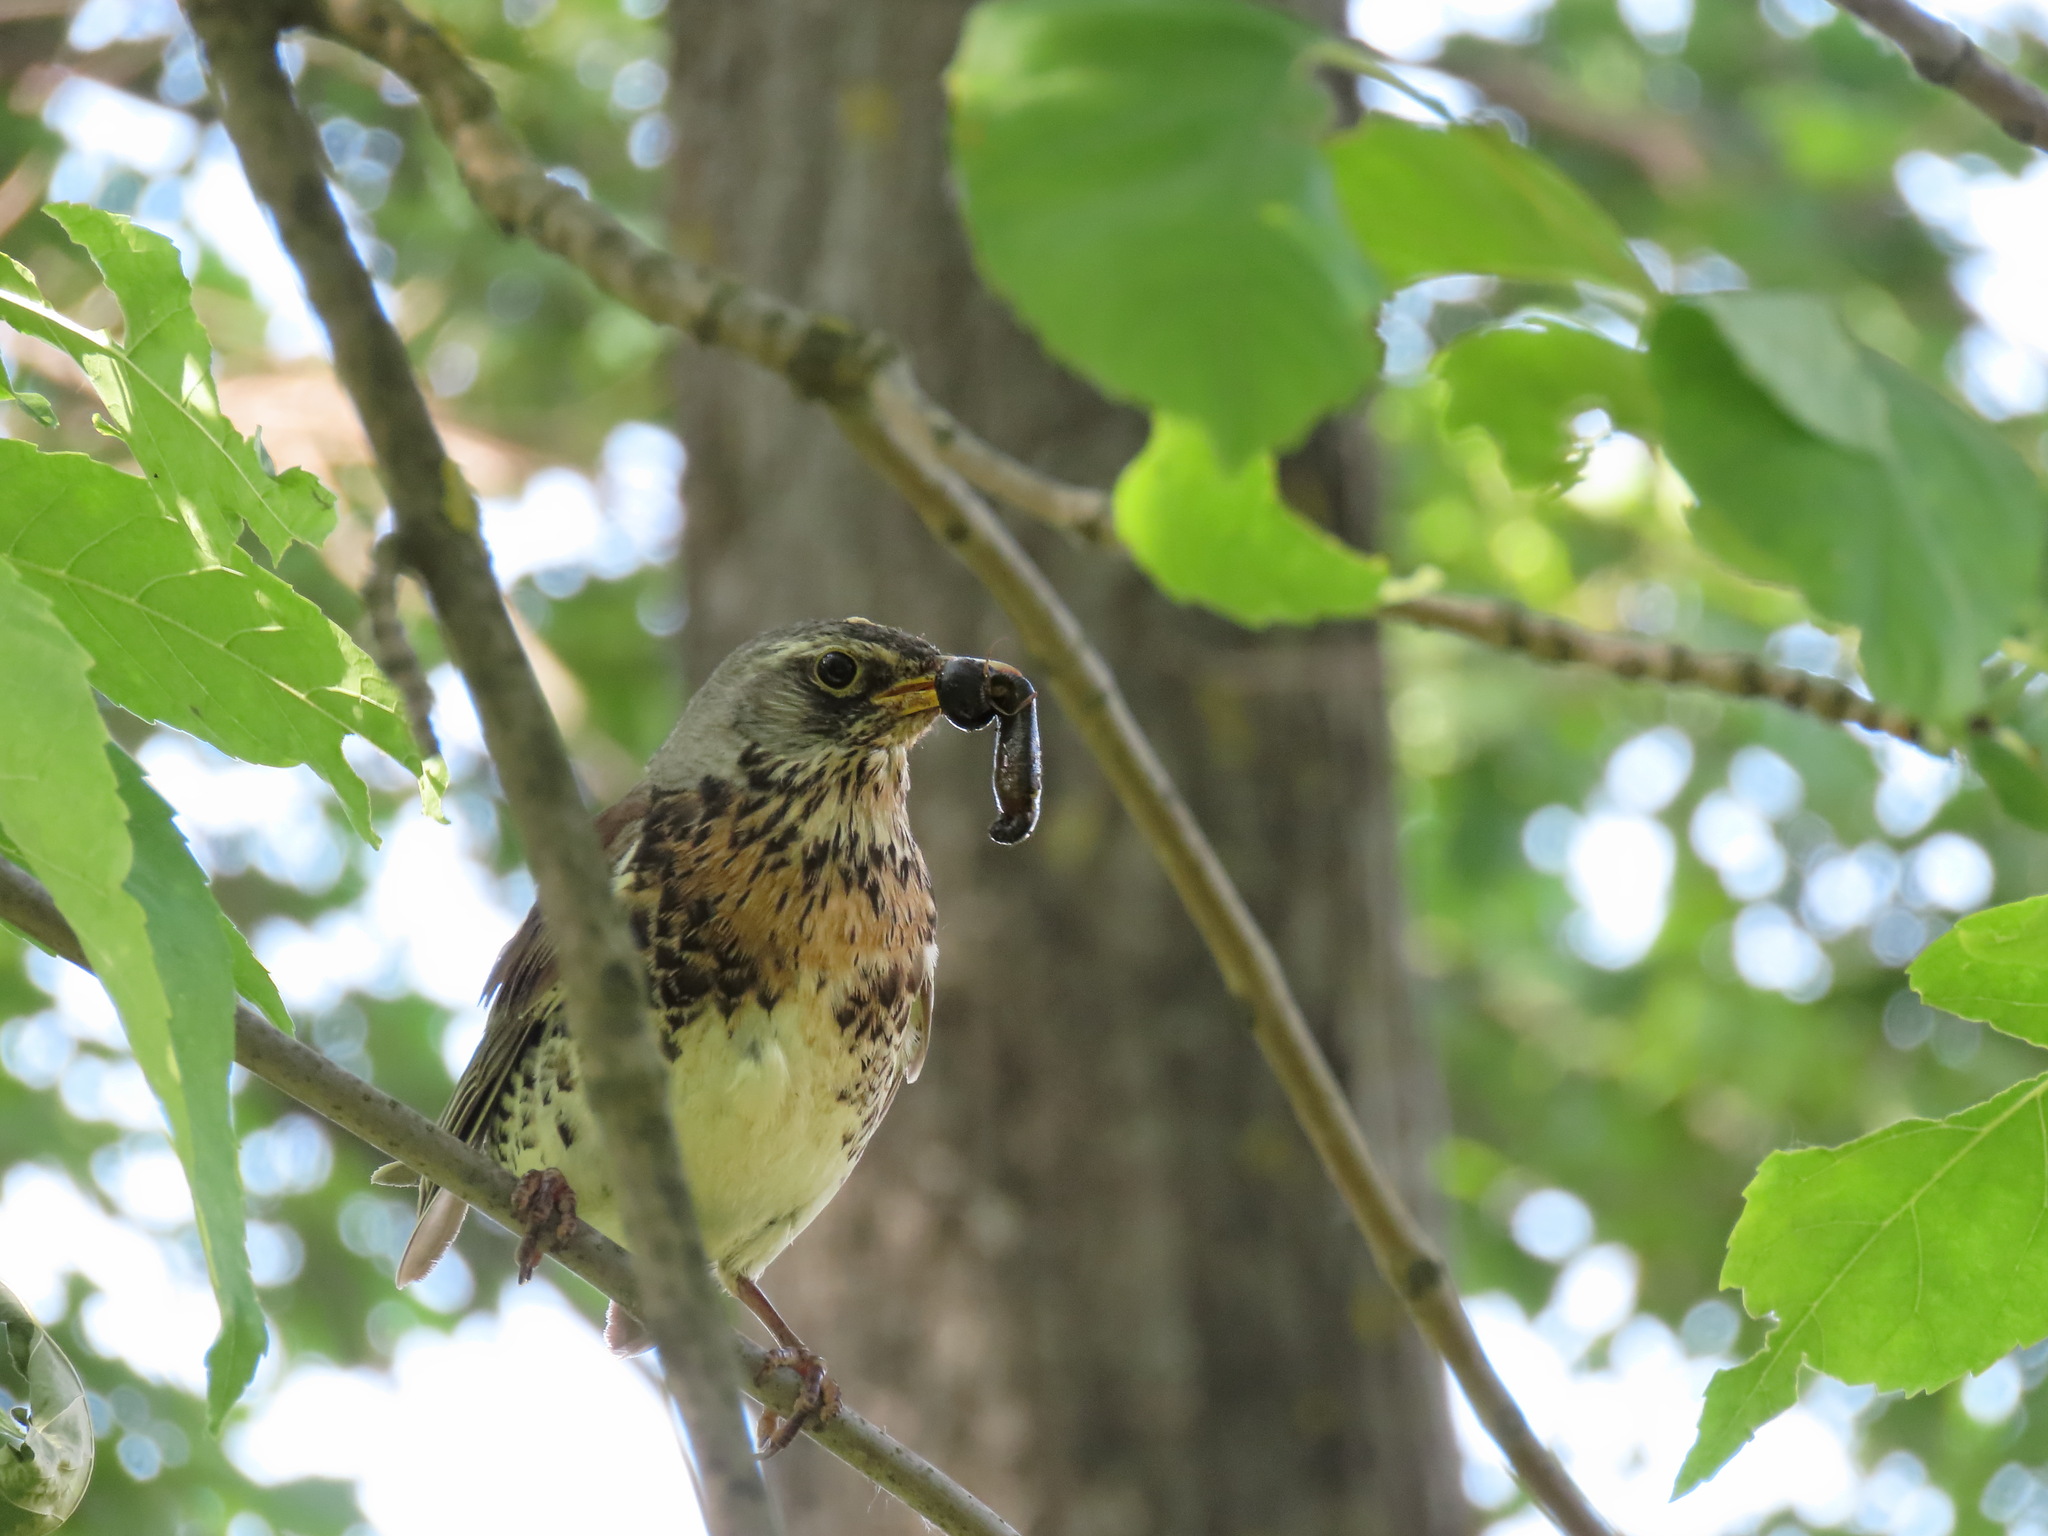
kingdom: Animalia
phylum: Chordata
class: Aves
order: Passeriformes
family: Turdidae
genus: Turdus
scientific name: Turdus pilaris
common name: Fieldfare
